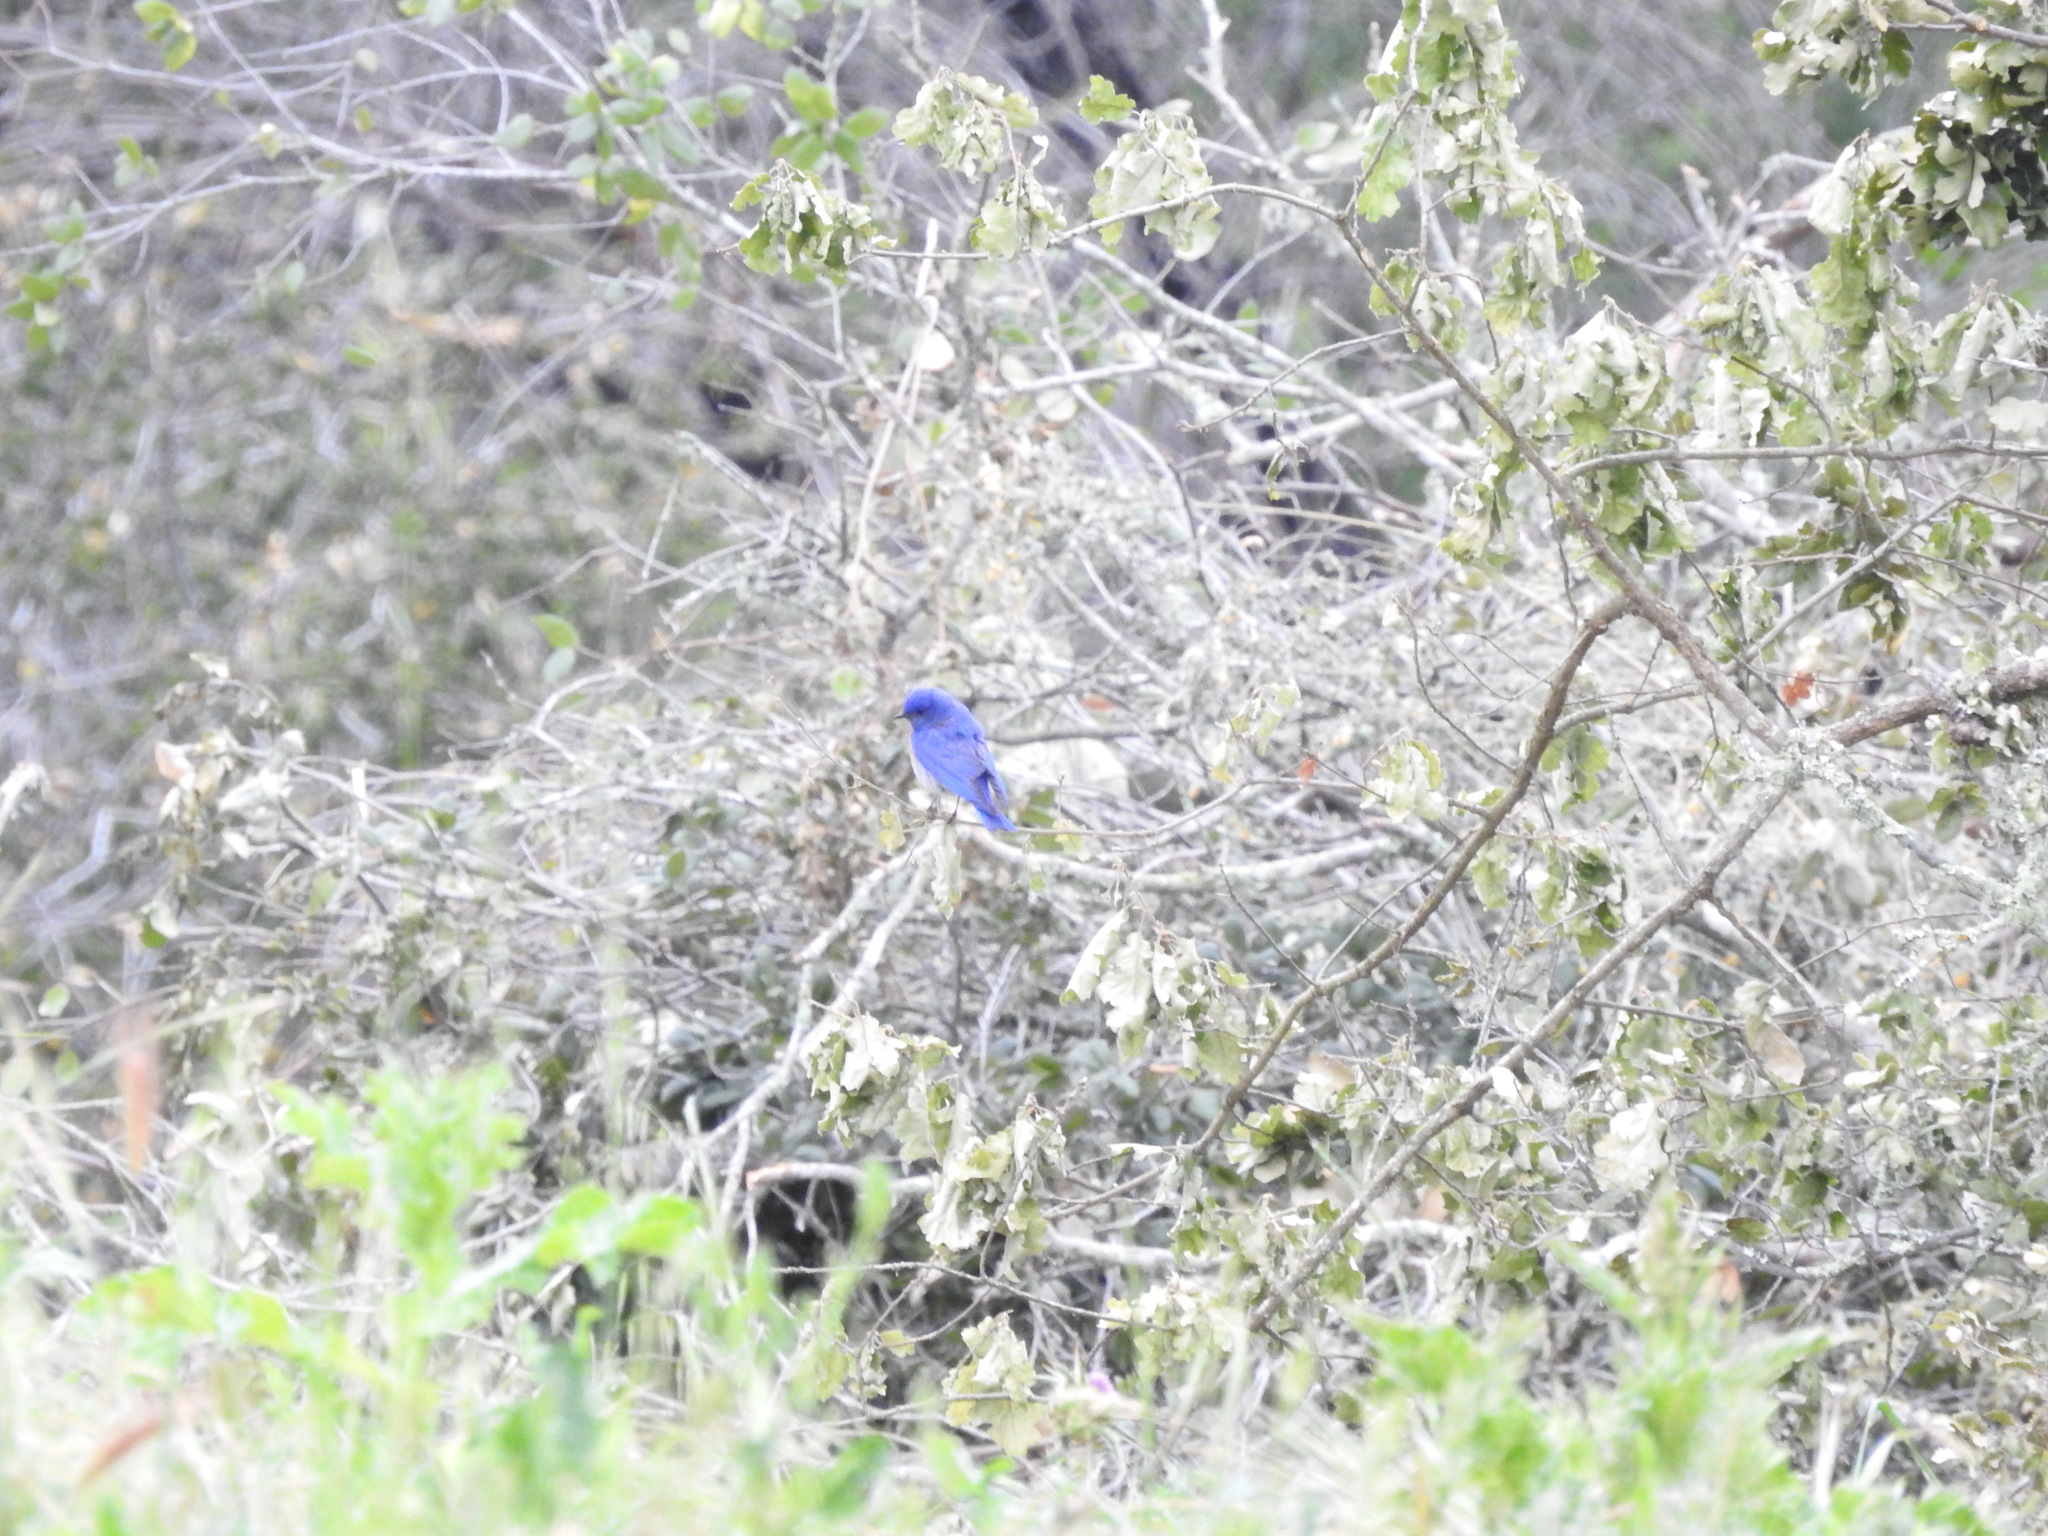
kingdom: Animalia
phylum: Chordata
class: Aves
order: Passeriformes
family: Turdidae
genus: Sialia
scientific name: Sialia mexicana
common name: Western bluebird
